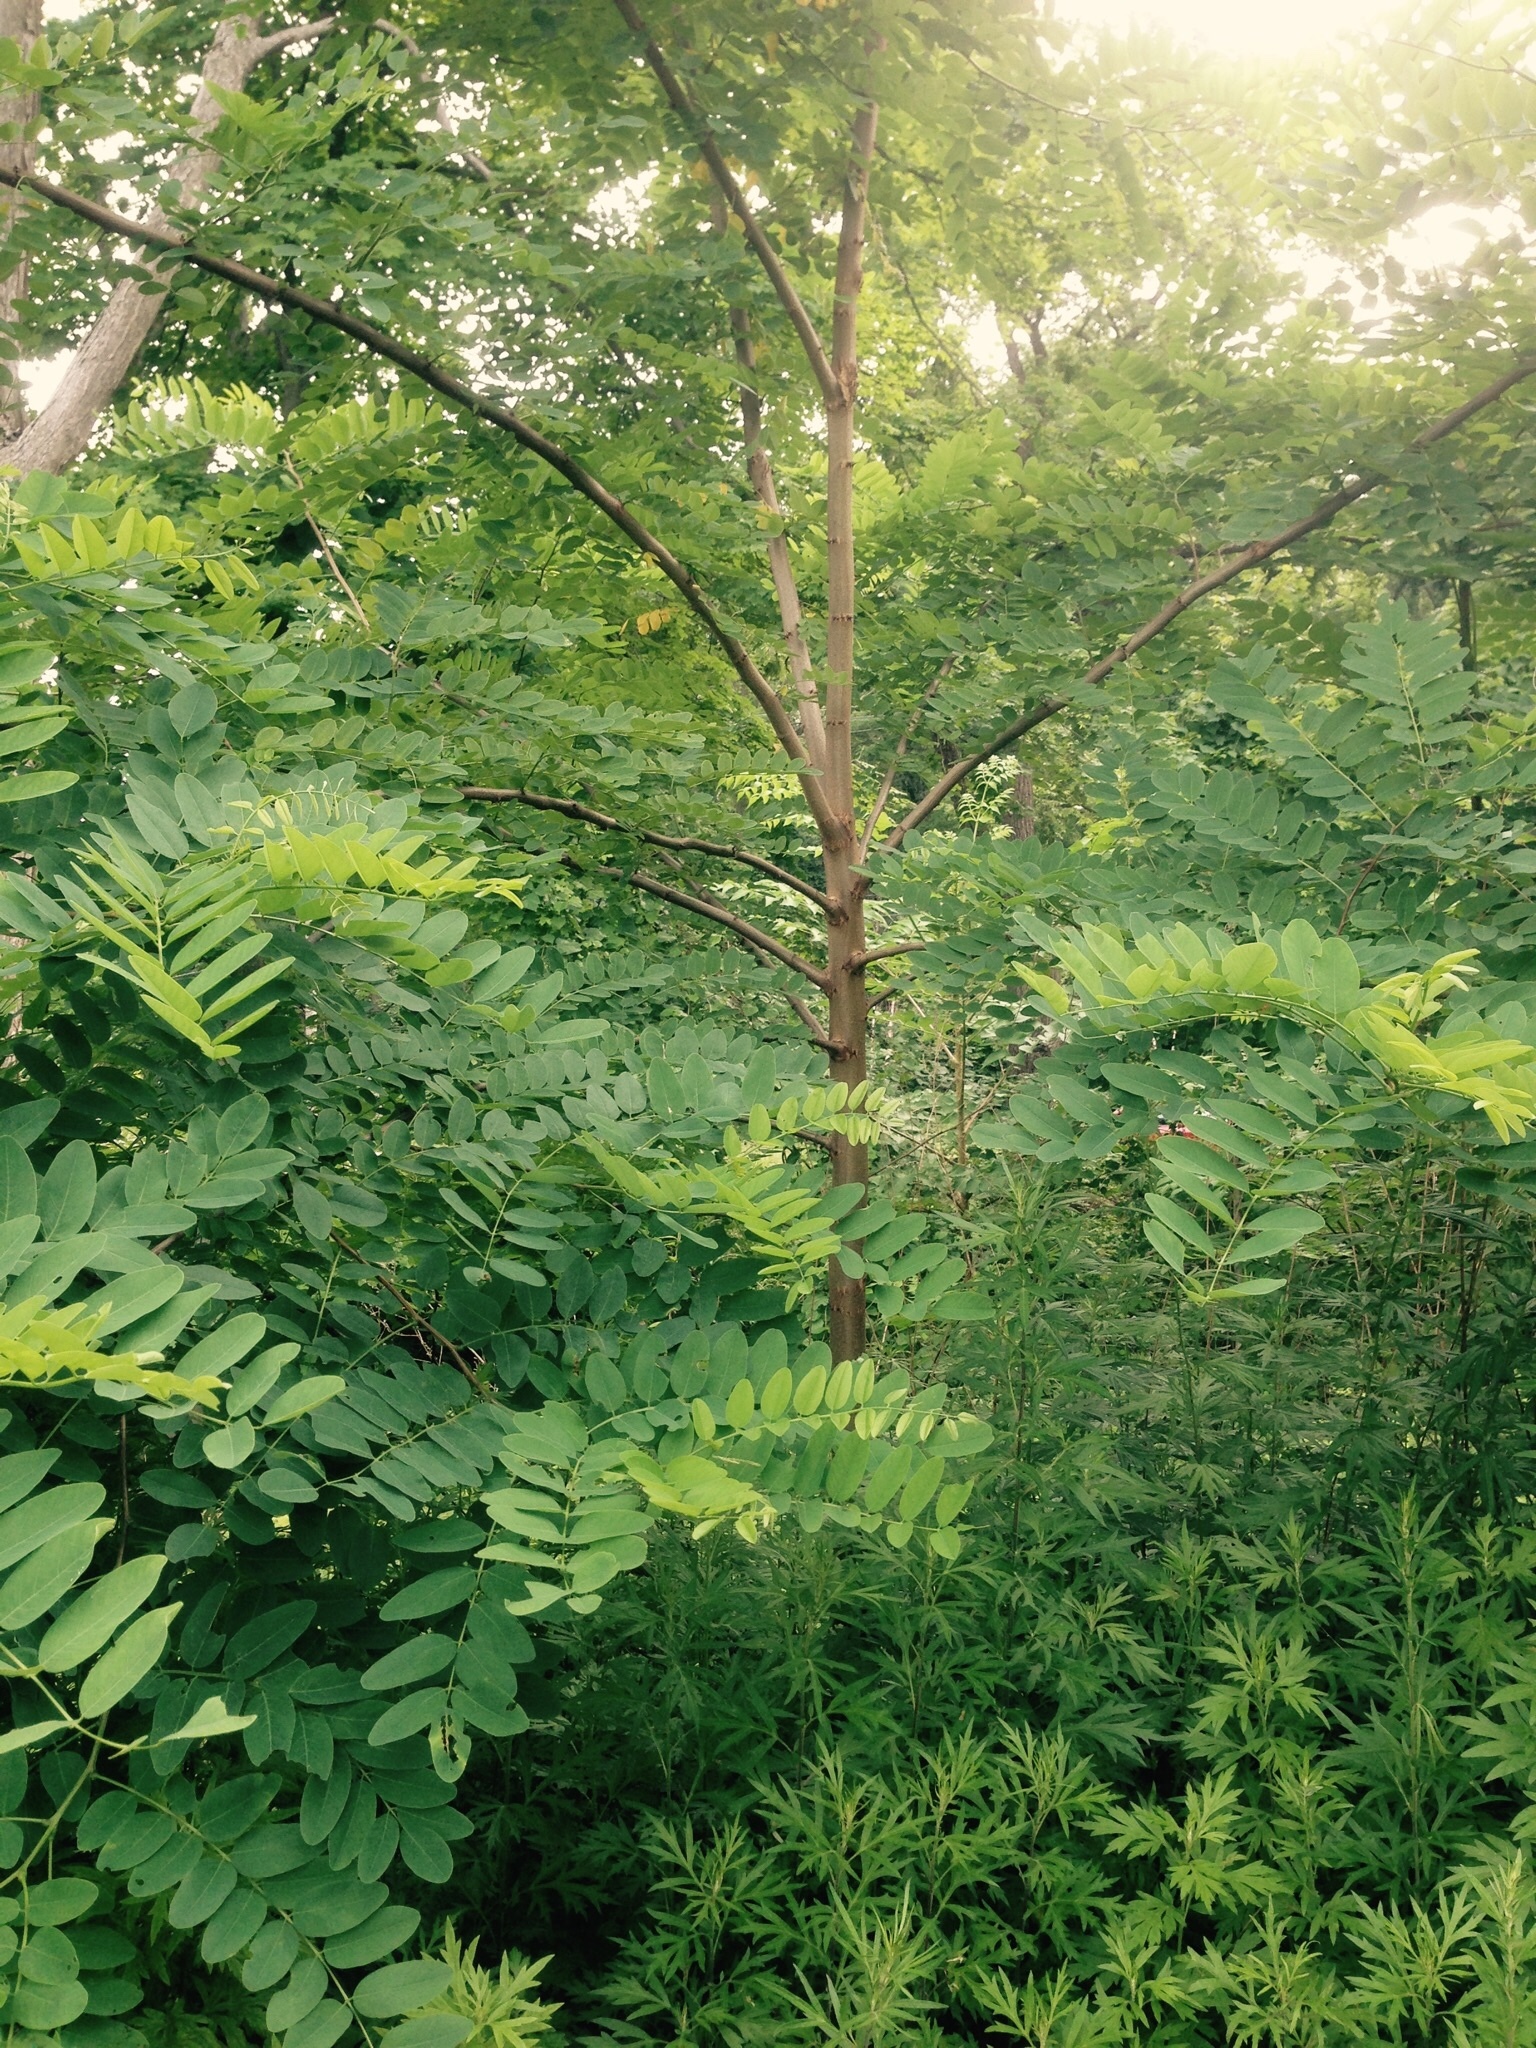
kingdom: Plantae
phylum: Tracheophyta
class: Magnoliopsida
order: Fabales
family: Fabaceae
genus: Robinia
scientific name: Robinia pseudoacacia
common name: Black locust
